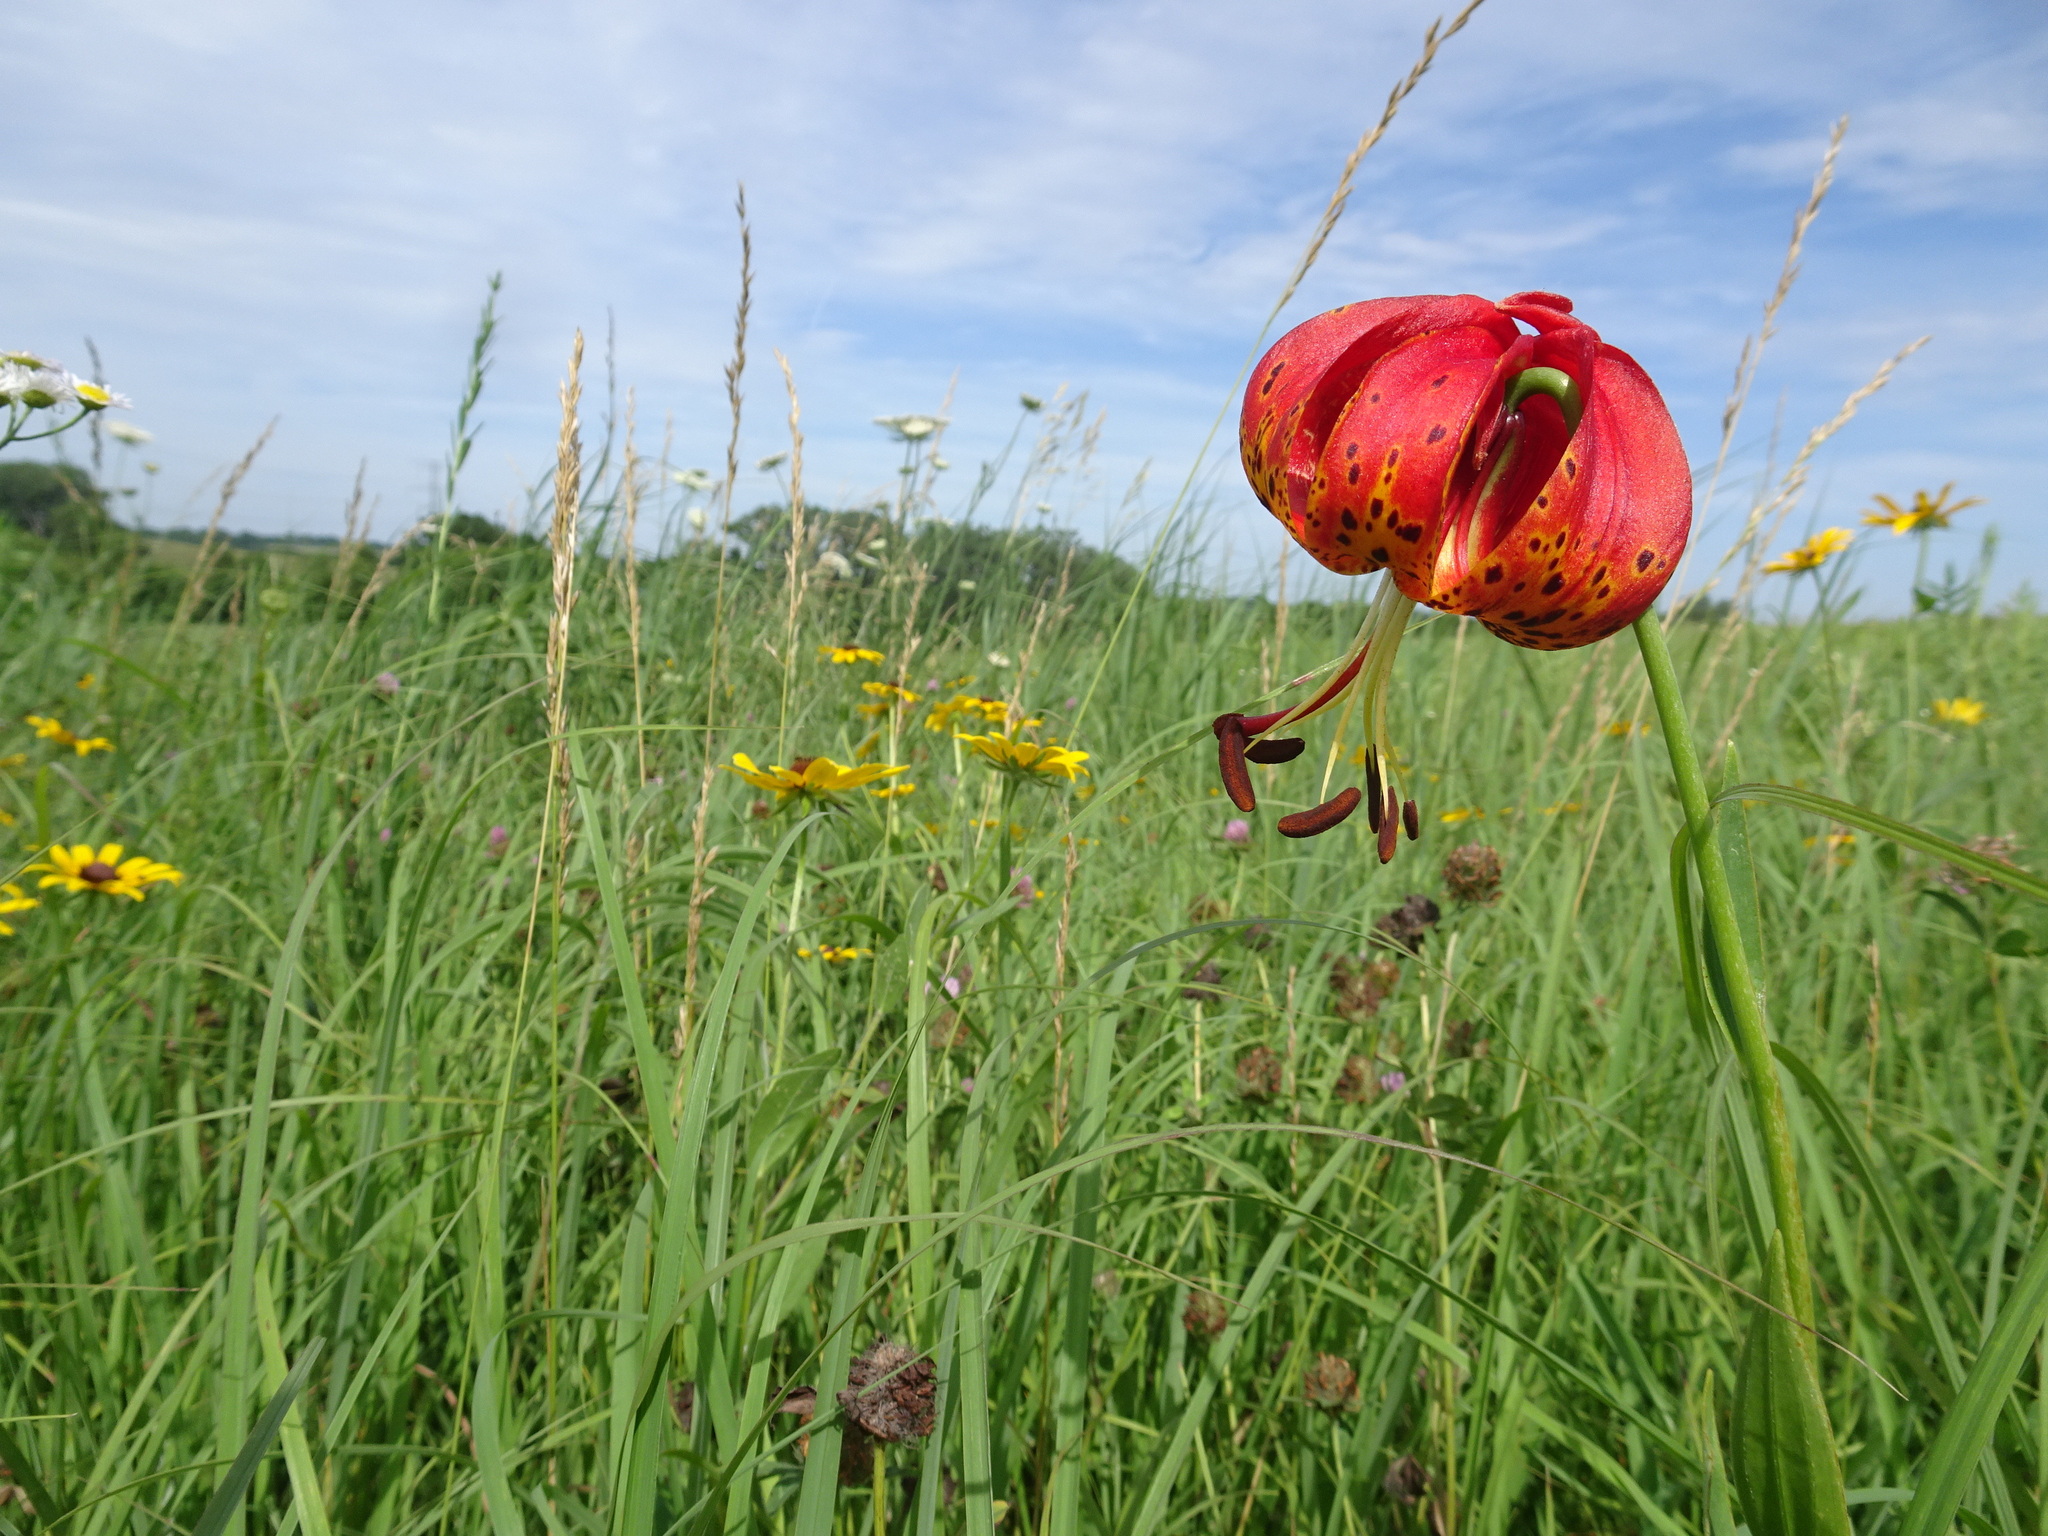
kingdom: Plantae
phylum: Tracheophyta
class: Liliopsida
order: Liliales
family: Liliaceae
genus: Lilium
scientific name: Lilium michiganense
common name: Michigan lily
